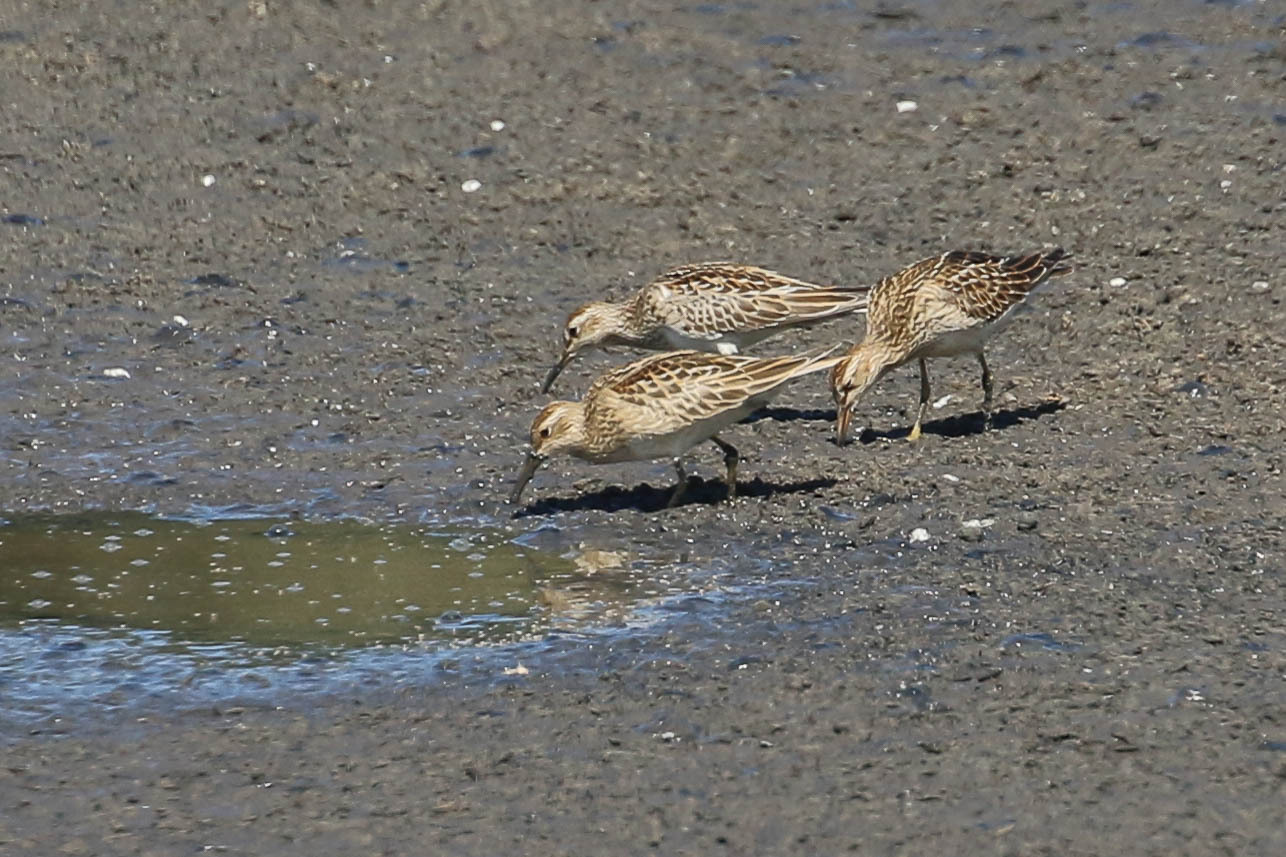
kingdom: Animalia
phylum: Chordata
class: Aves
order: Charadriiformes
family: Scolopacidae
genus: Calidris
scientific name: Calidris melanotos
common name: Pectoral sandpiper
